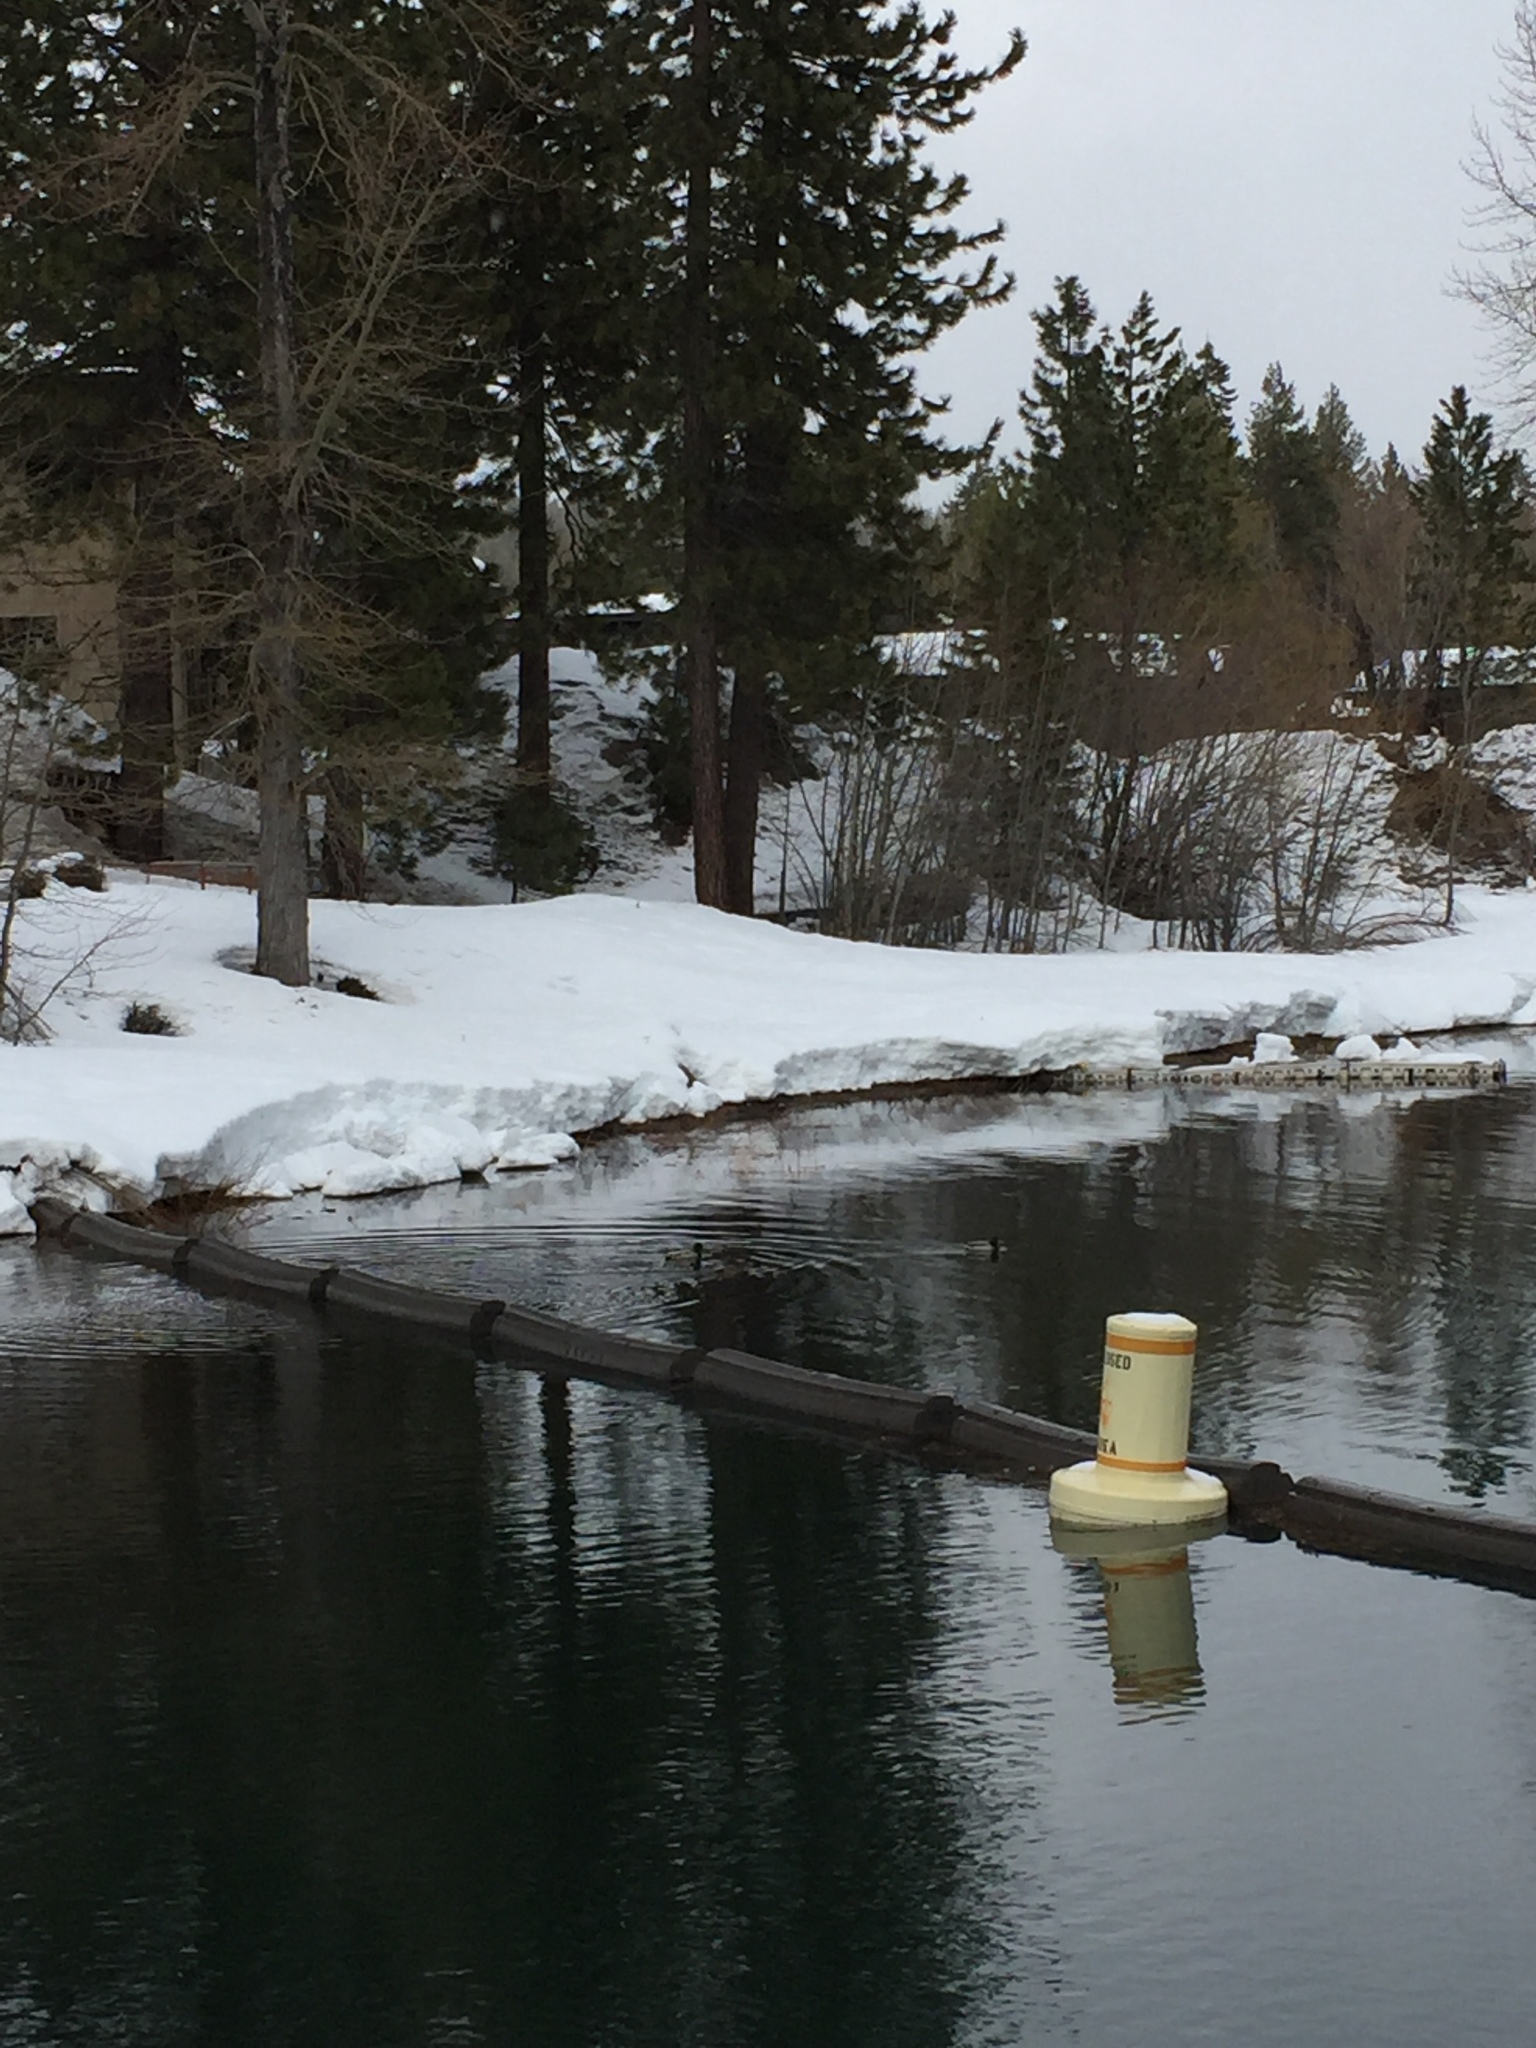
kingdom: Animalia
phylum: Chordata
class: Aves
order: Anseriformes
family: Anatidae
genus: Anas
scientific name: Anas platyrhynchos
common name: Mallard
